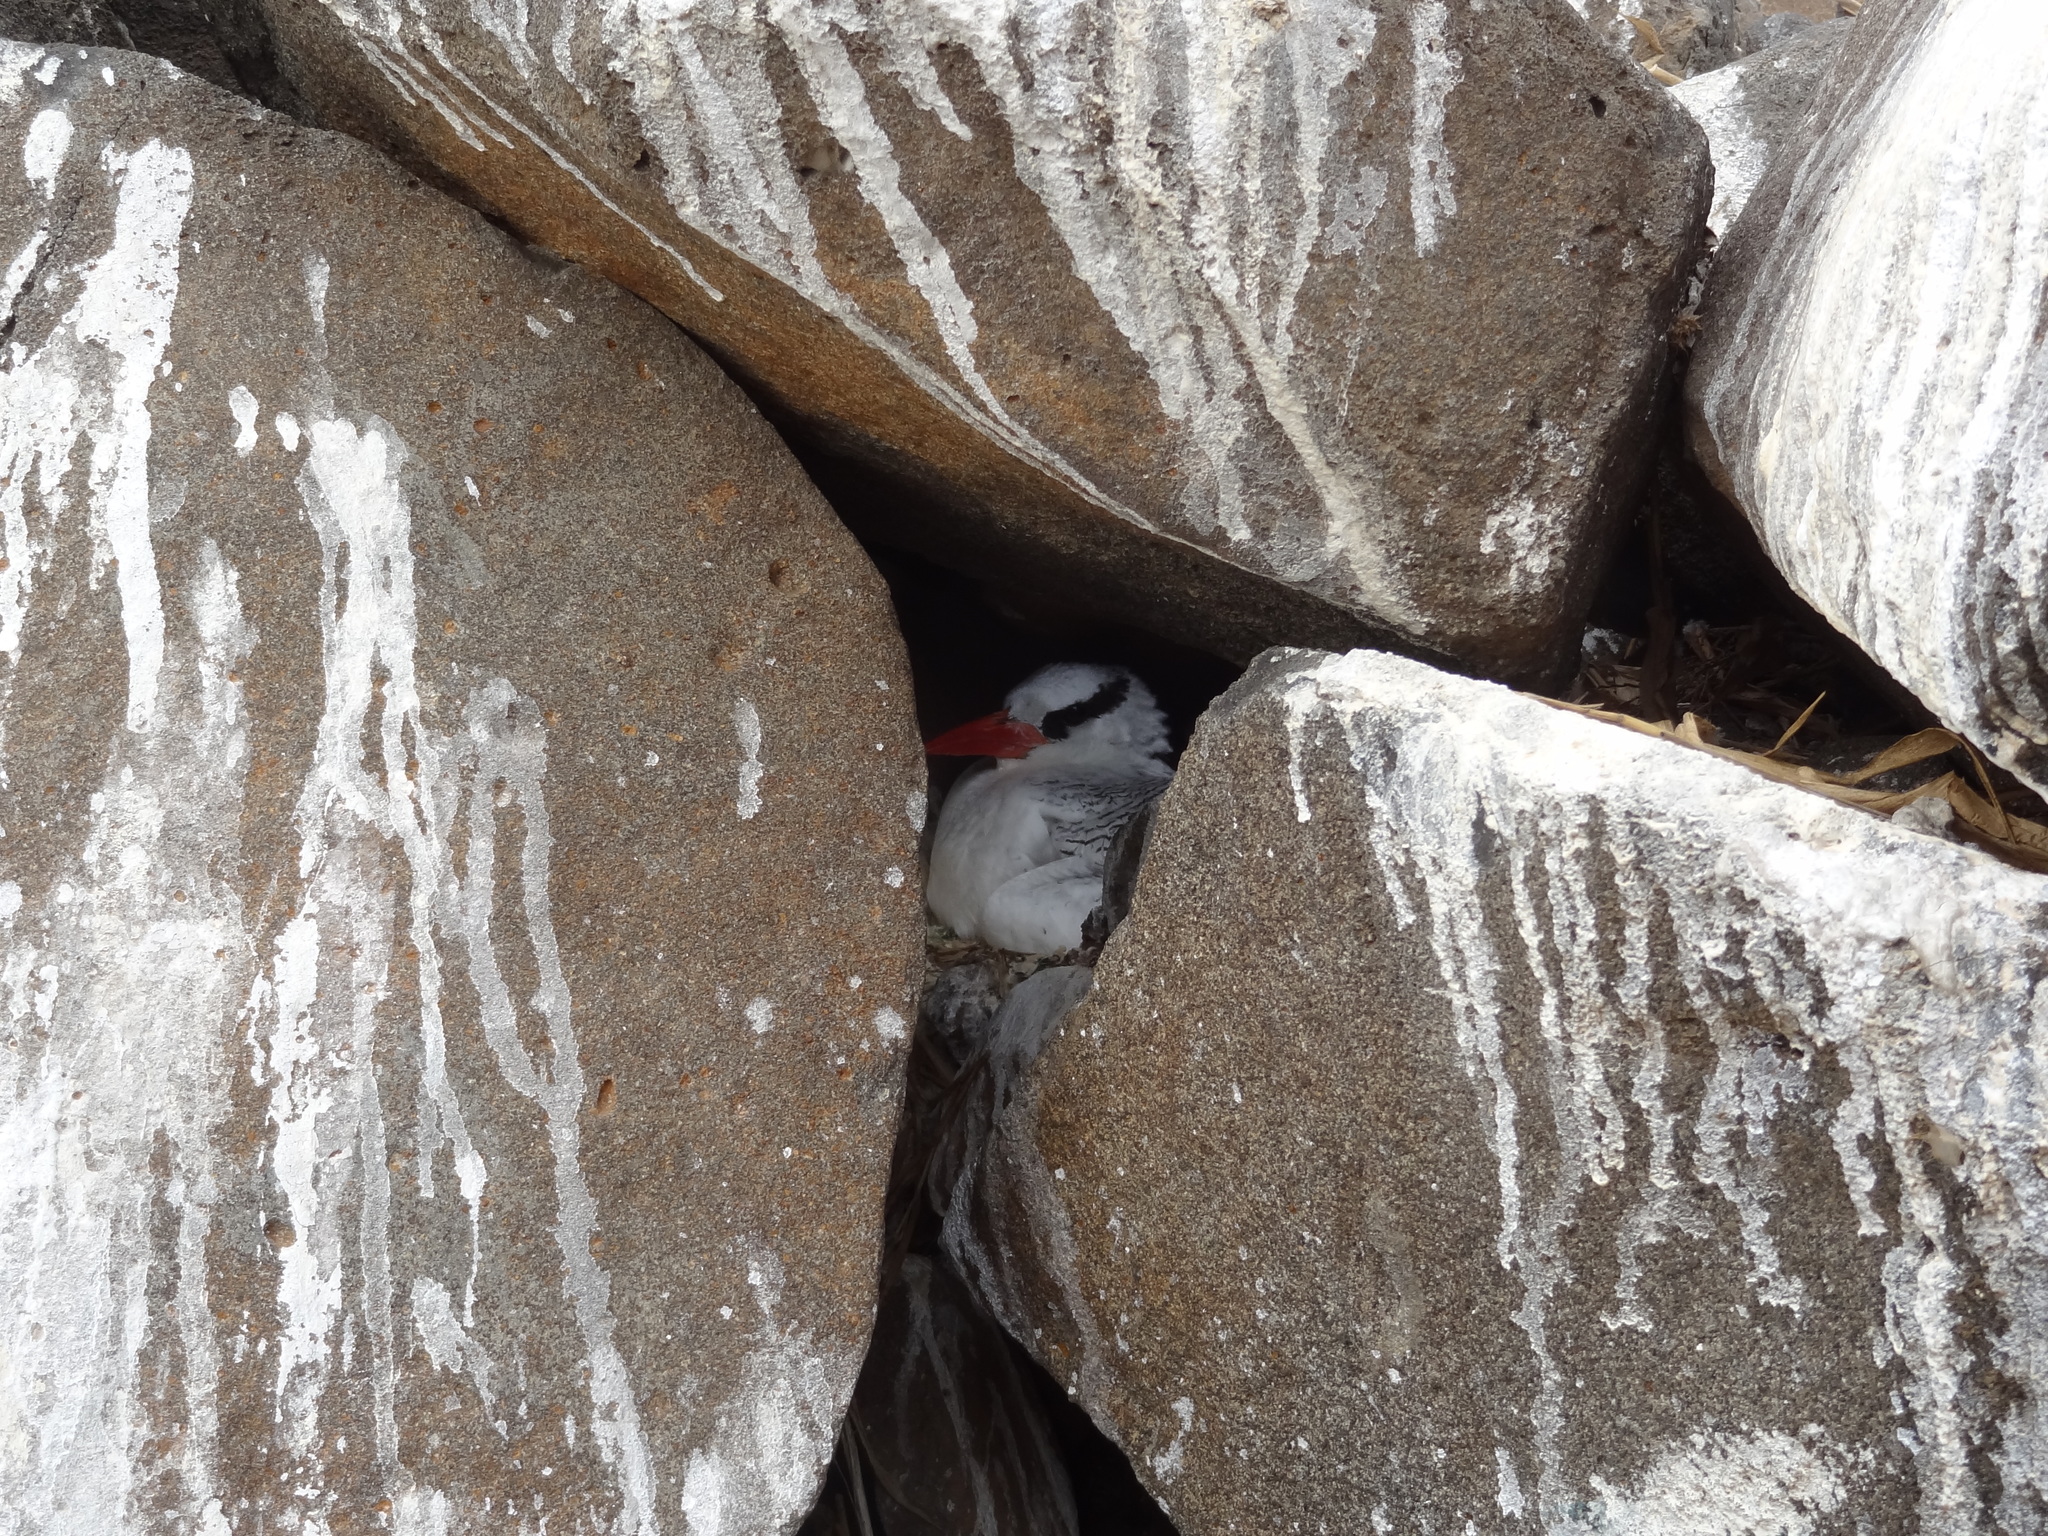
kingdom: Animalia
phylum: Chordata
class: Aves
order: Phaethontiformes
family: Phaethontidae
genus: Phaethon
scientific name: Phaethon aethereus
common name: Red-billed tropicbird
